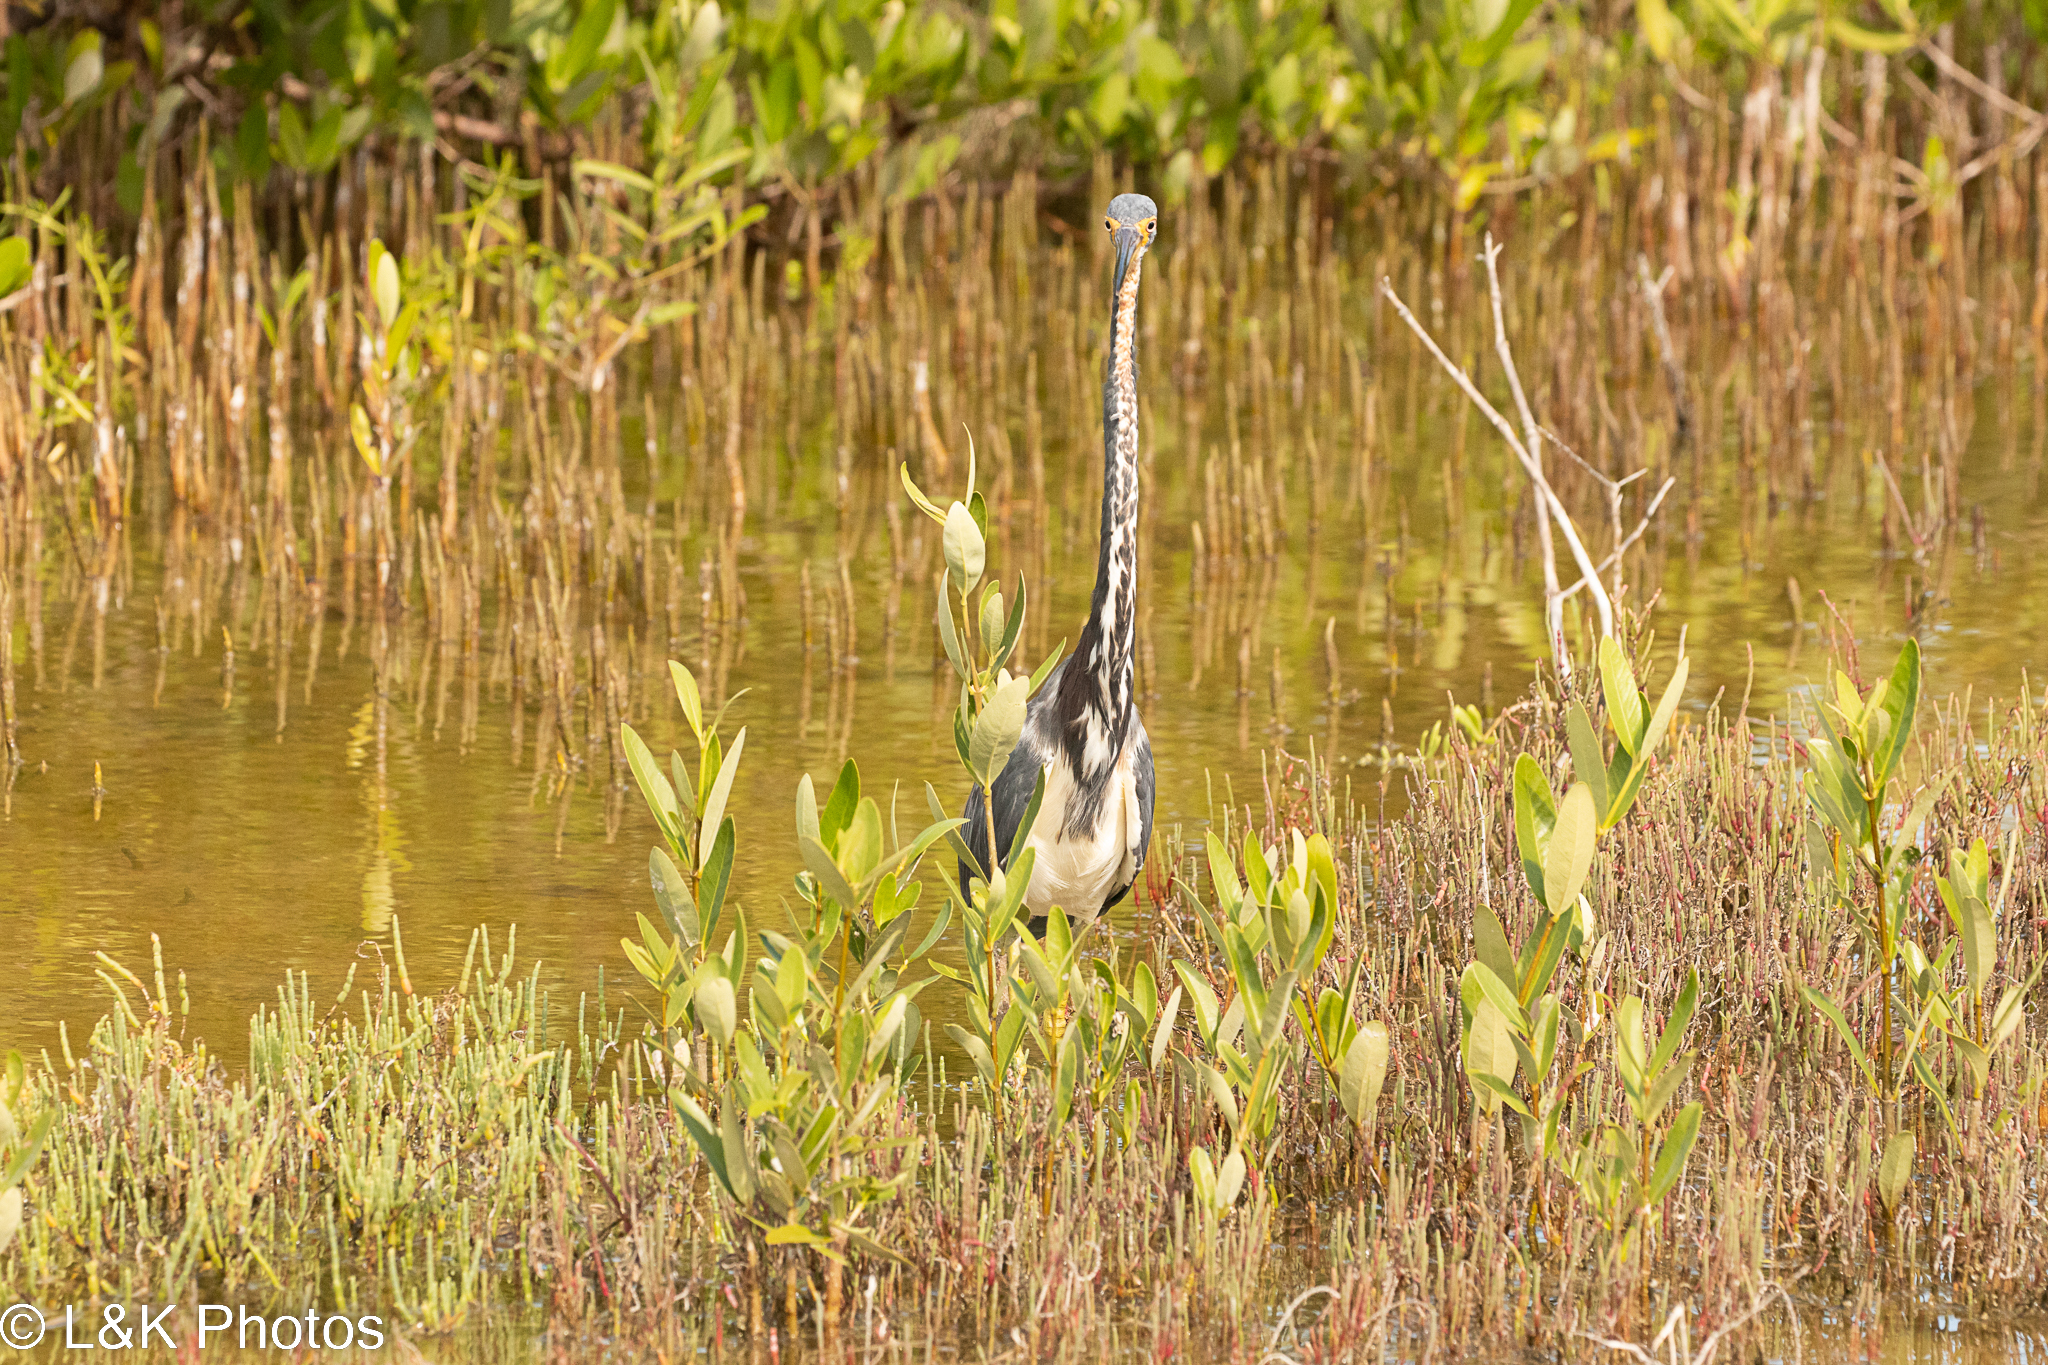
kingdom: Animalia
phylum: Chordata
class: Aves
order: Pelecaniformes
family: Ardeidae
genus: Egretta
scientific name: Egretta tricolor
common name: Tricolored heron
